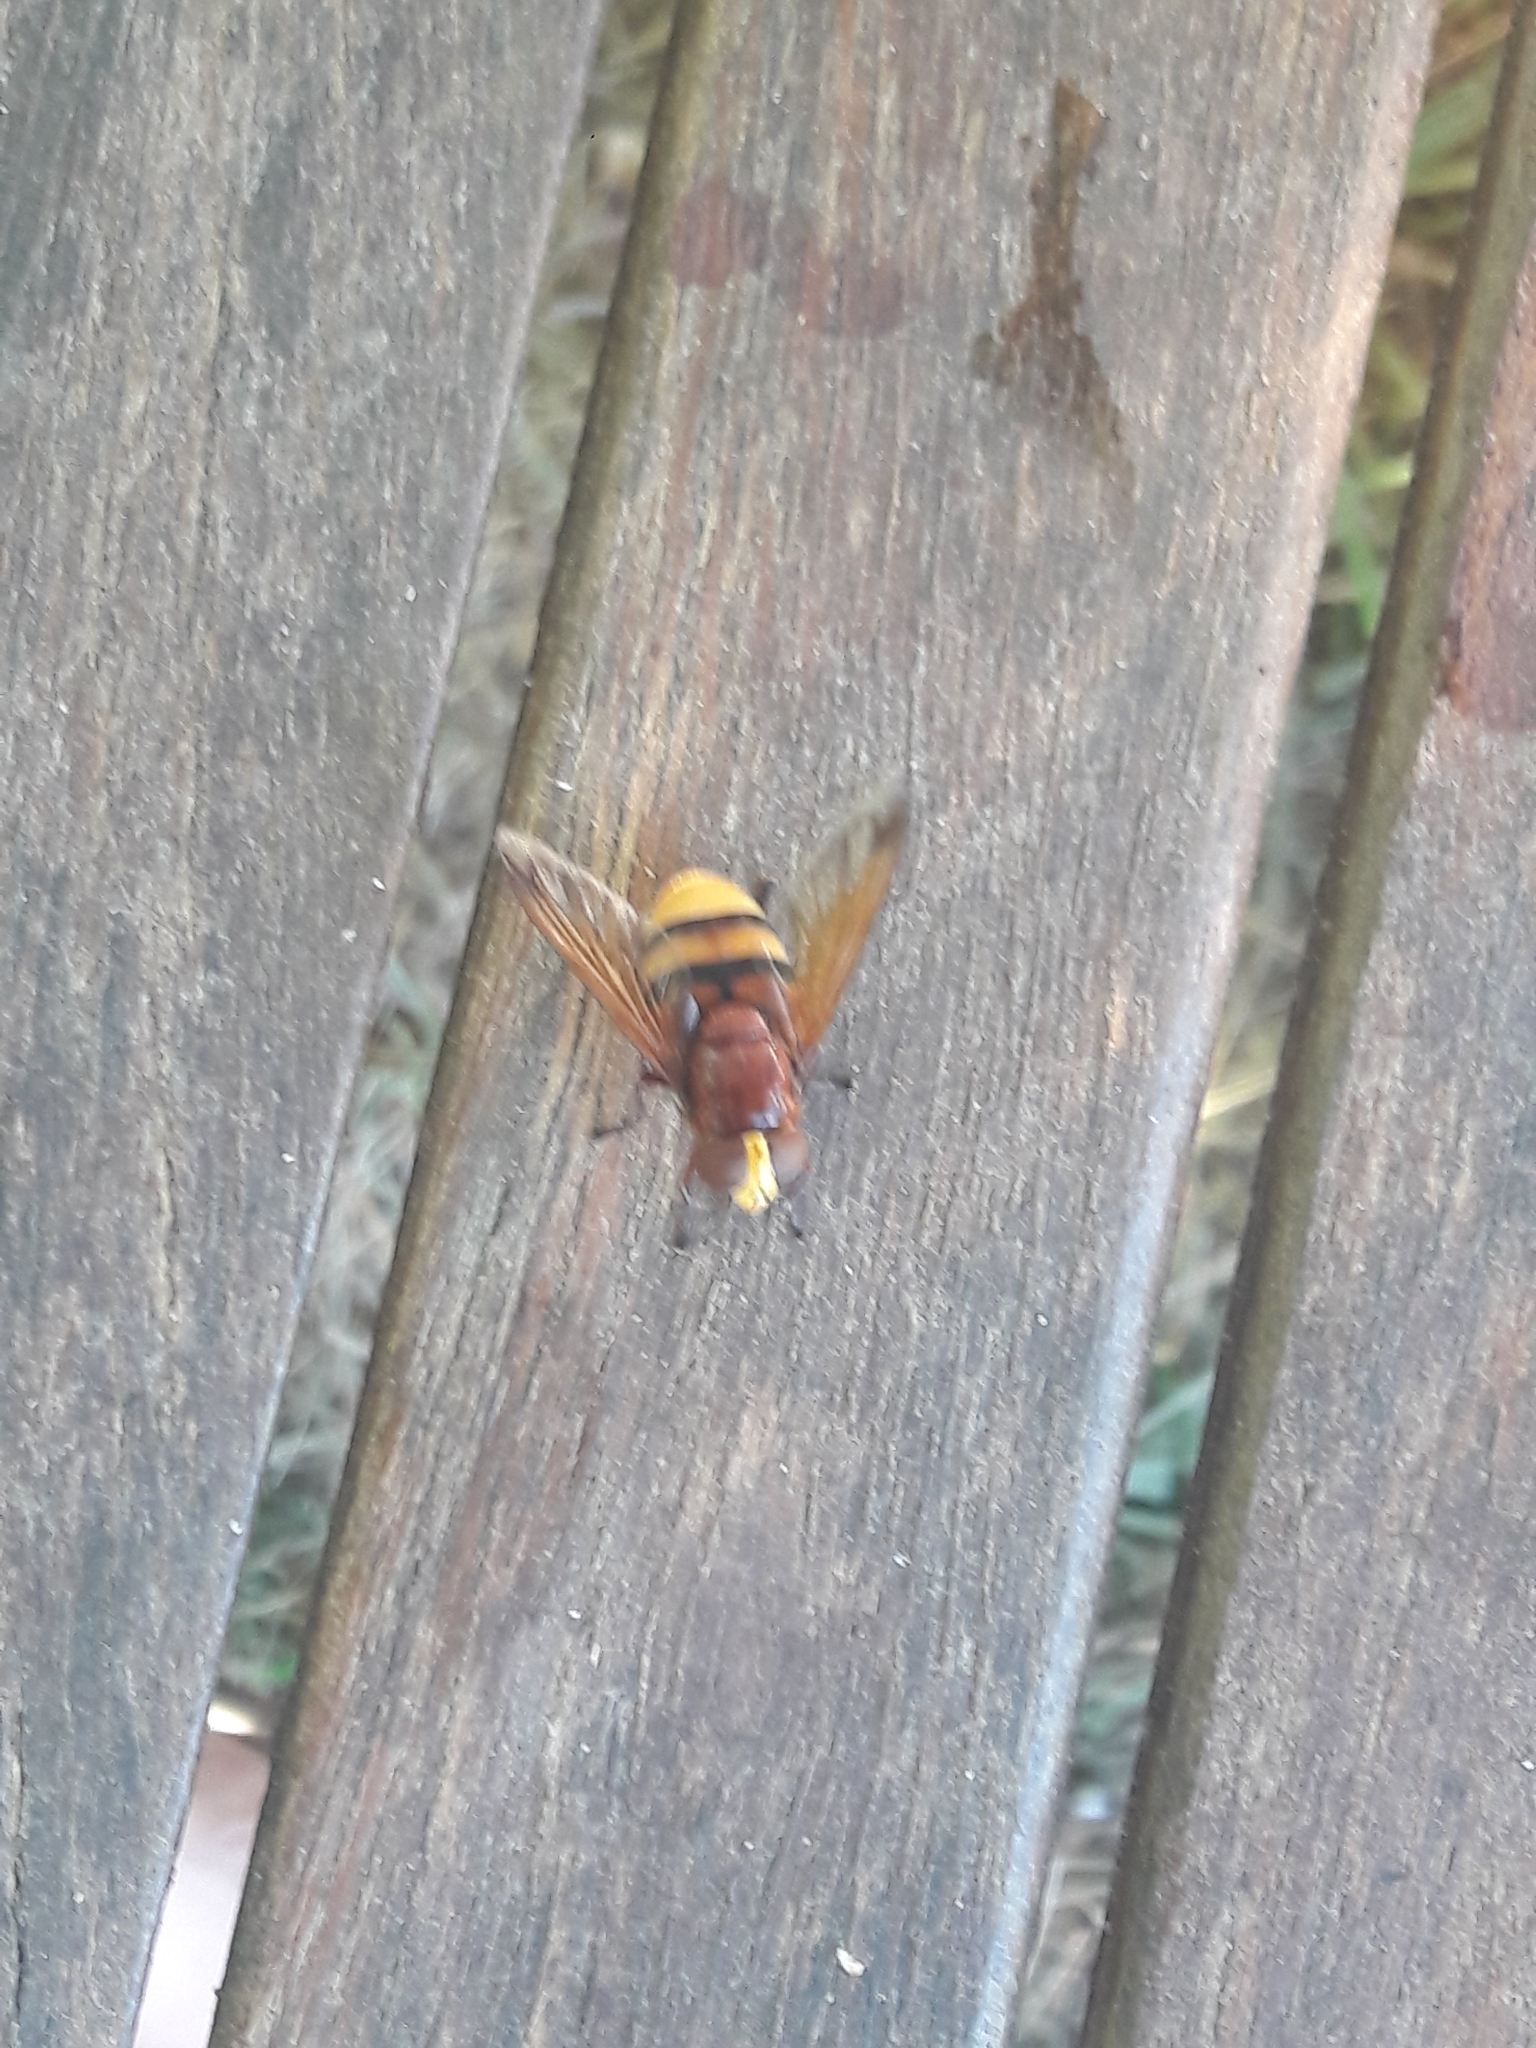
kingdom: Animalia
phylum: Arthropoda
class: Insecta
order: Diptera
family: Syrphidae
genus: Volucella
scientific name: Volucella zonaria
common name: Hornet hoverfly
